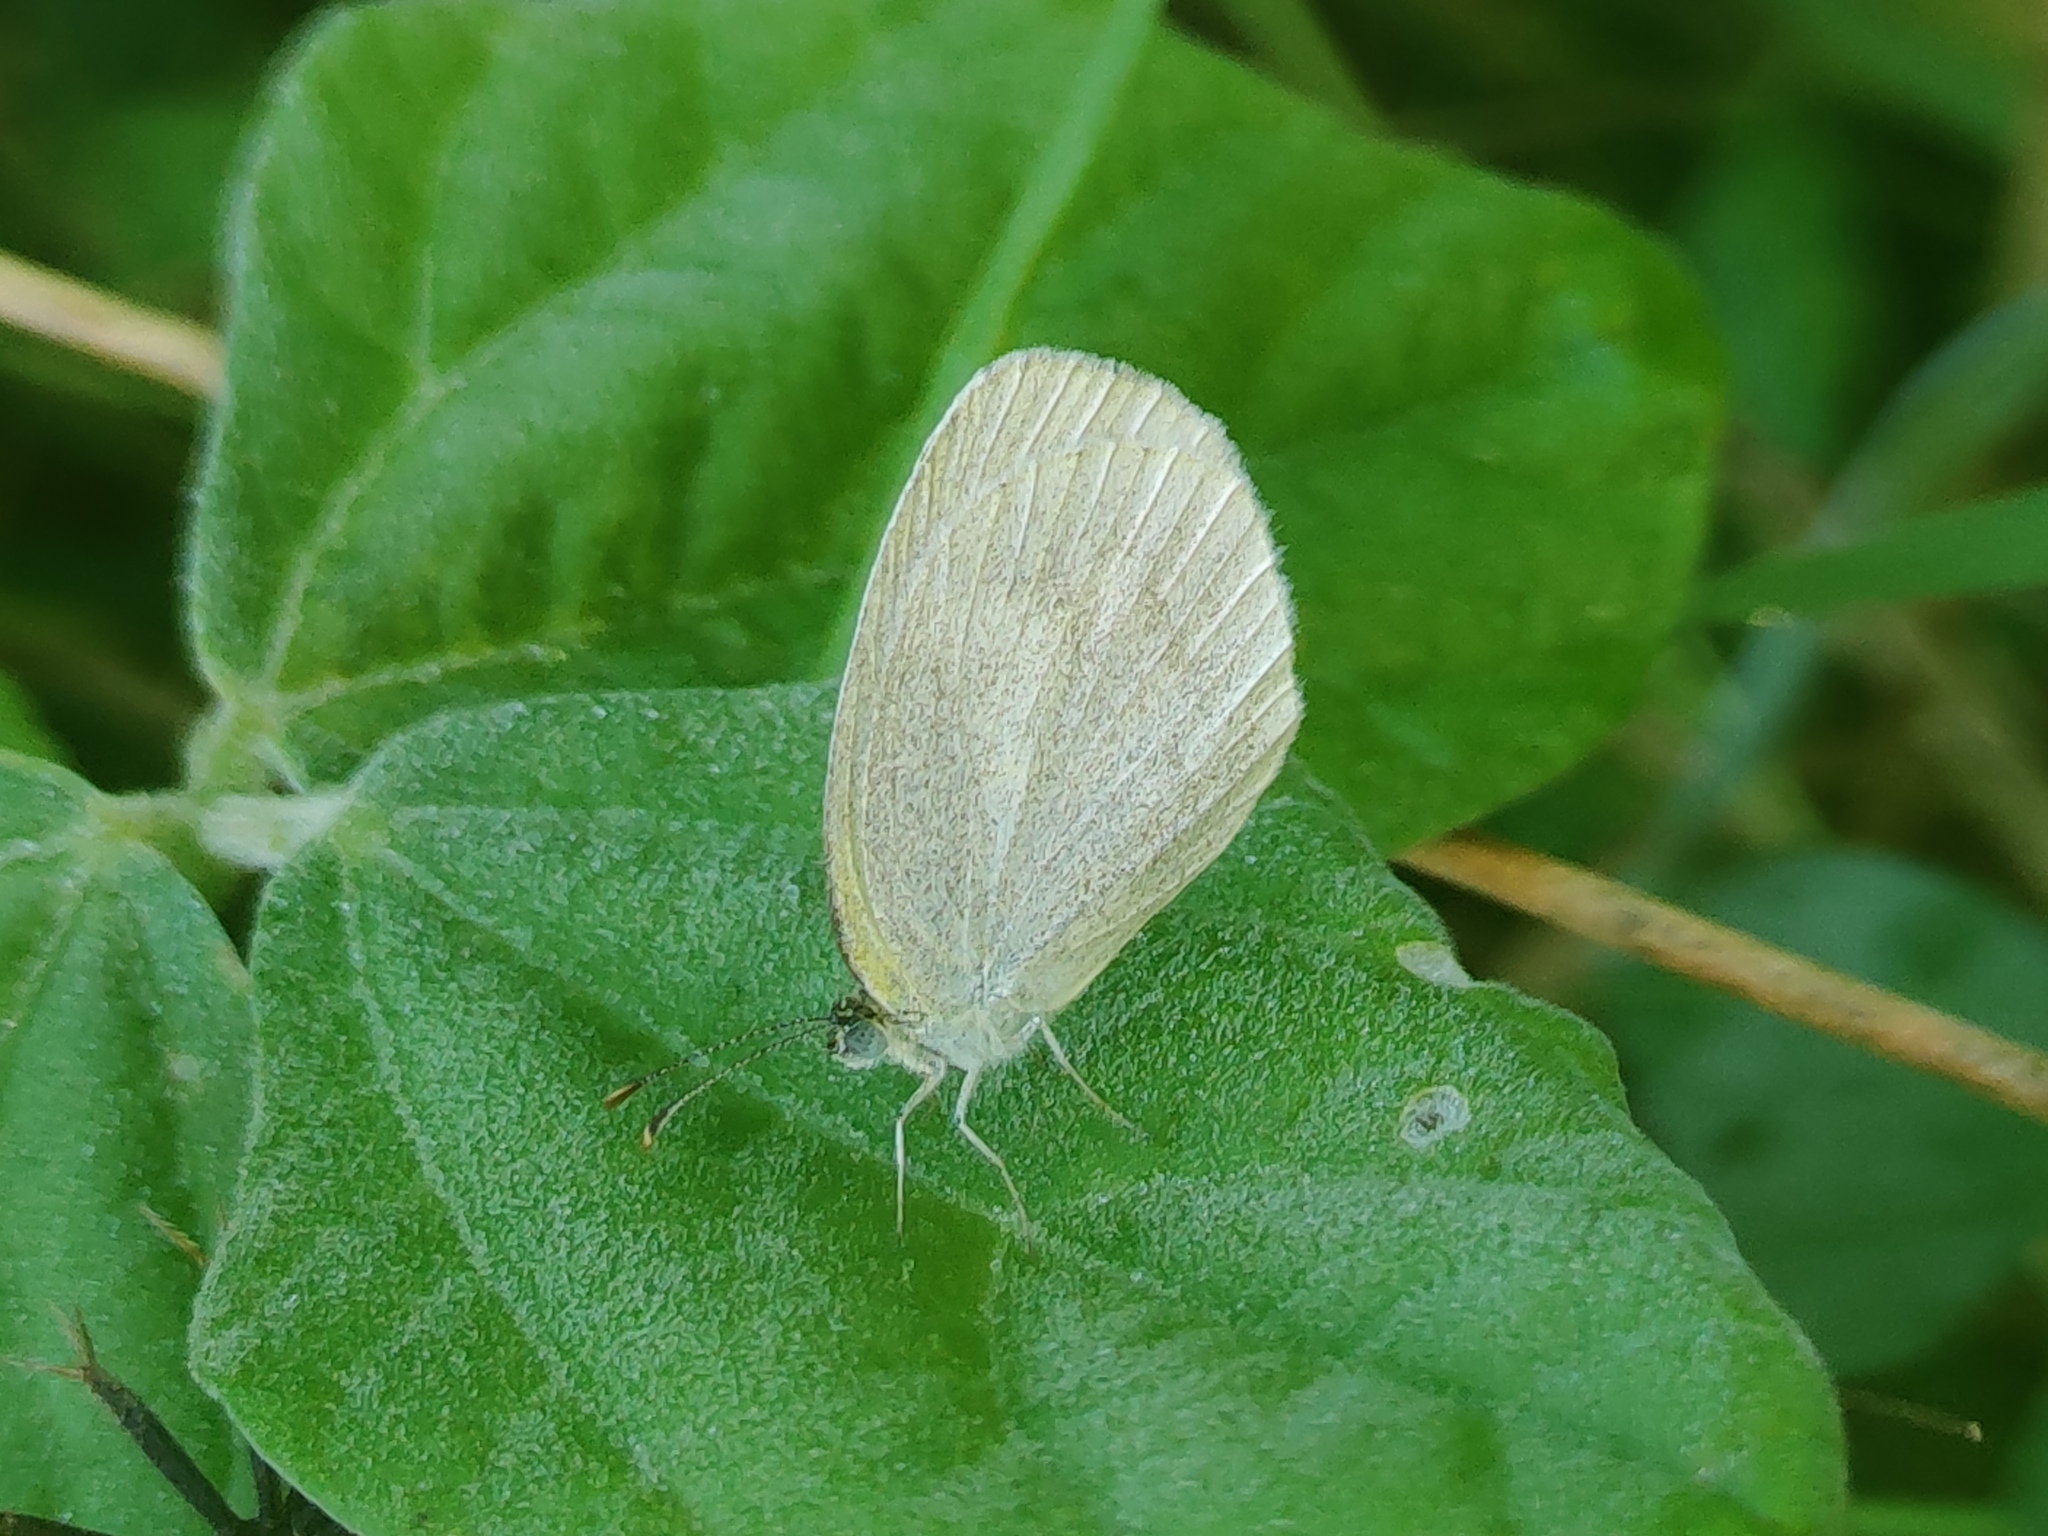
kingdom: Animalia
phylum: Arthropoda
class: Insecta
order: Lepidoptera
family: Pieridae
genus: Eurema
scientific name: Eurema daira
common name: Barred sulphur
